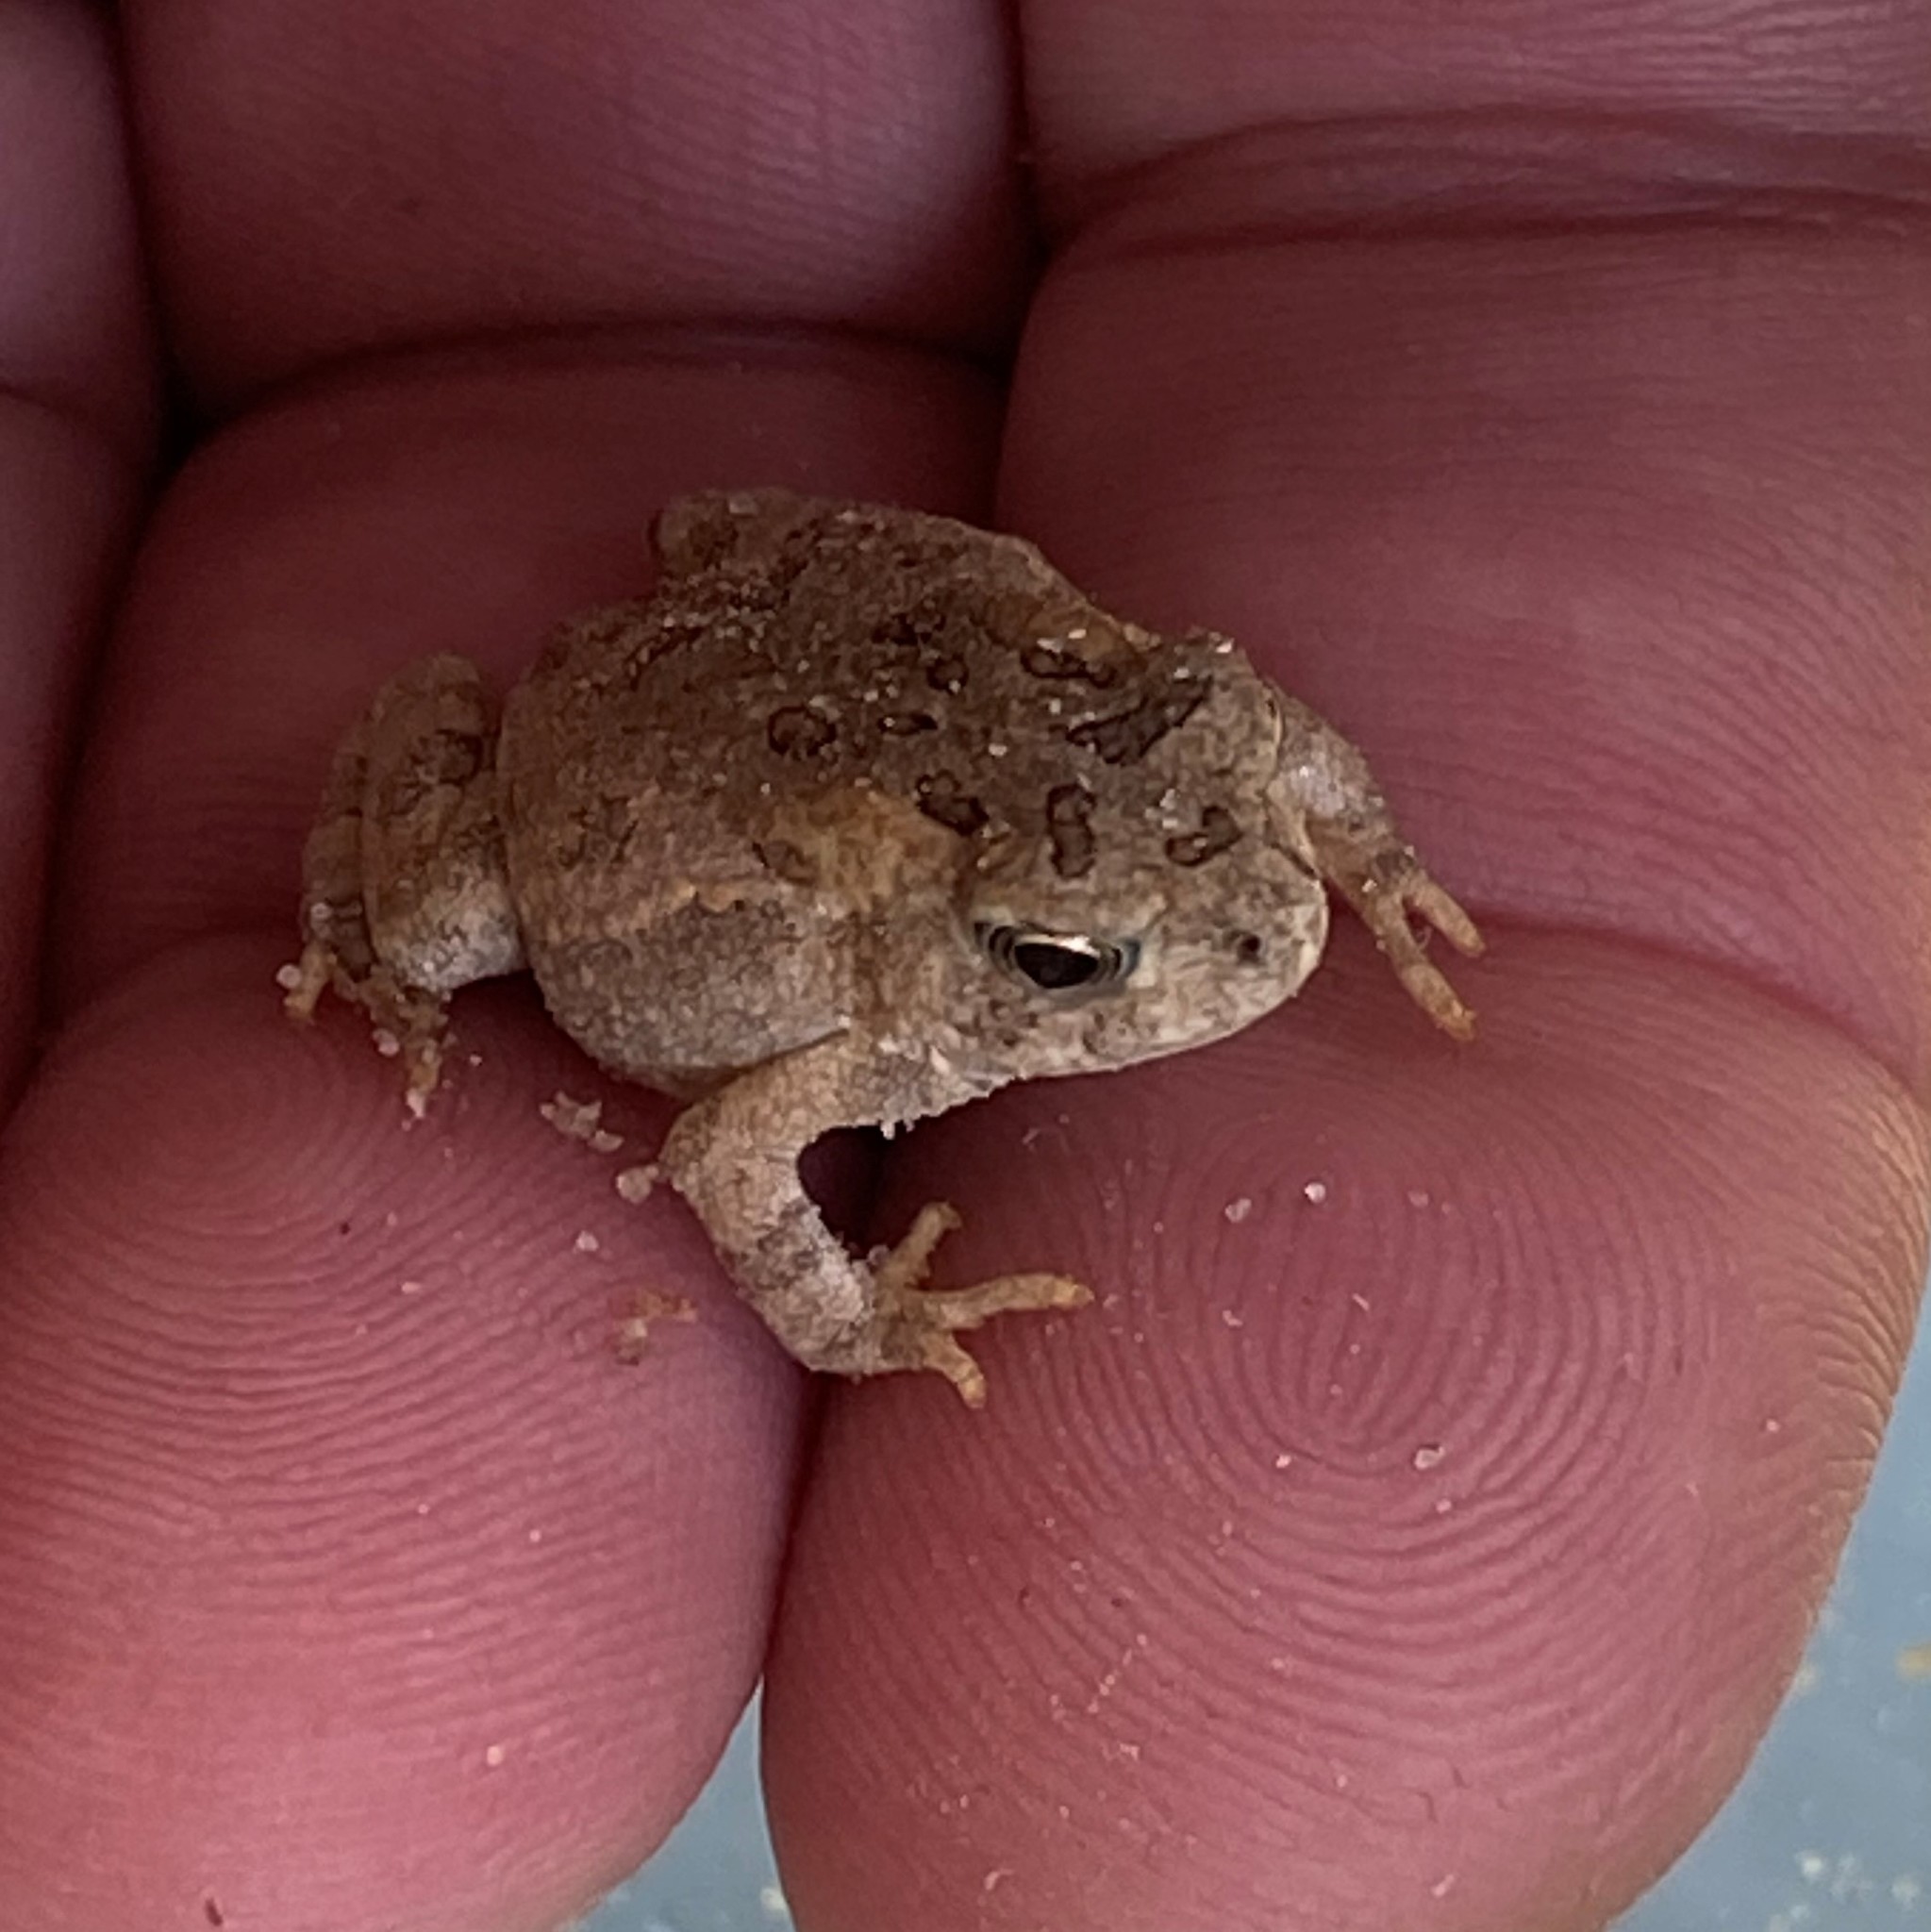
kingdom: Animalia
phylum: Chordata
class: Amphibia
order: Anura
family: Bufonidae
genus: Anaxyrus
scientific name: Anaxyrus fowleri
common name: Fowler's toad
